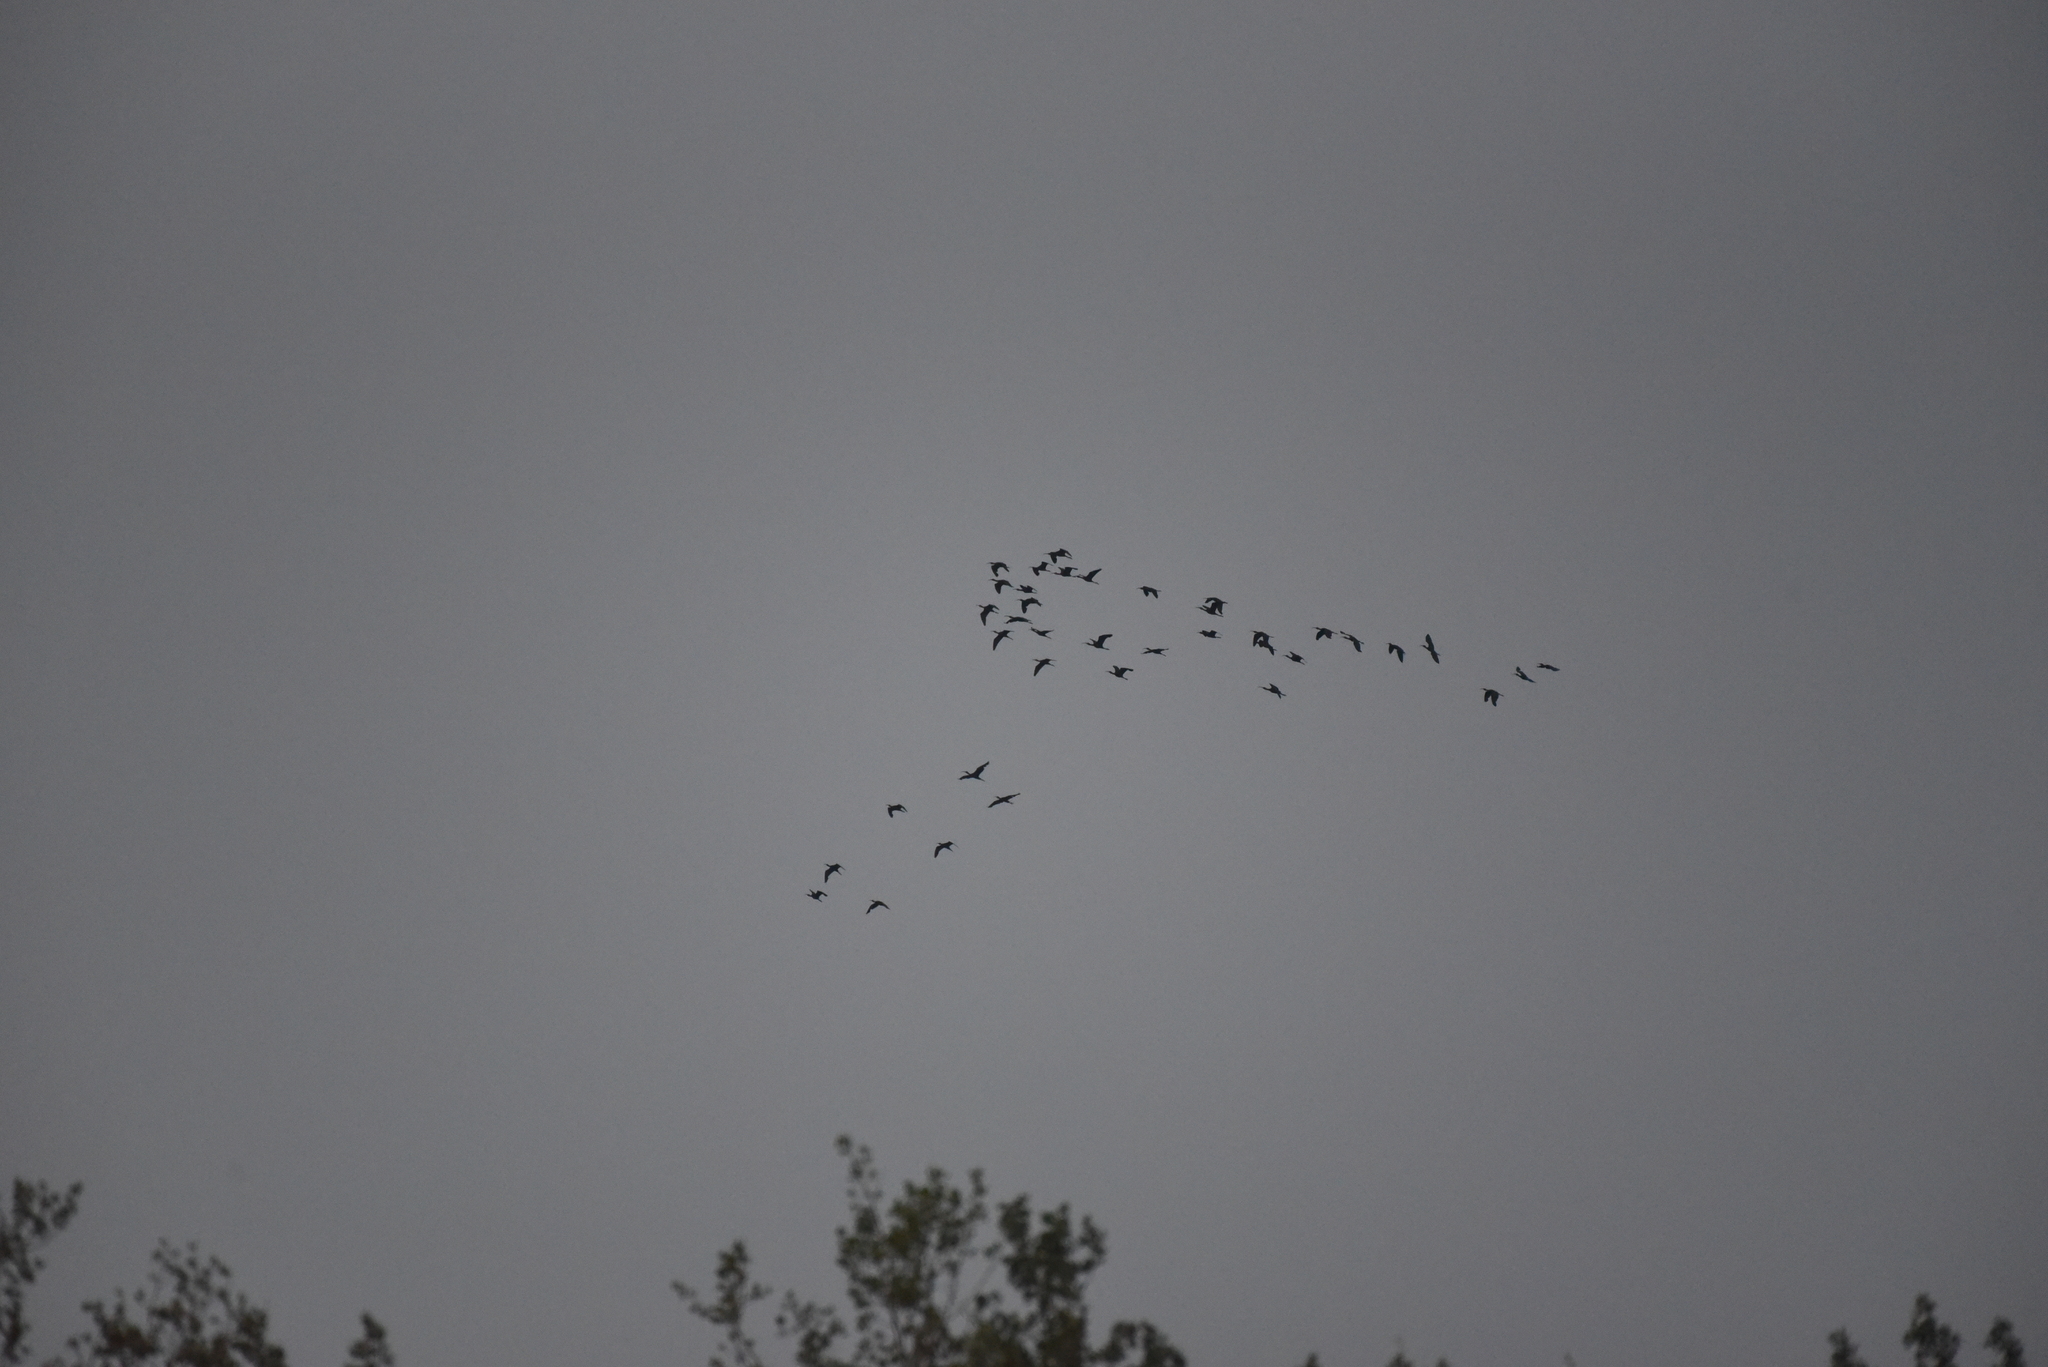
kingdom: Animalia
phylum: Chordata
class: Aves
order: Pelecaniformes
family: Threskiornithidae
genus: Plegadis
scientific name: Plegadis chihi
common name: White-faced ibis
